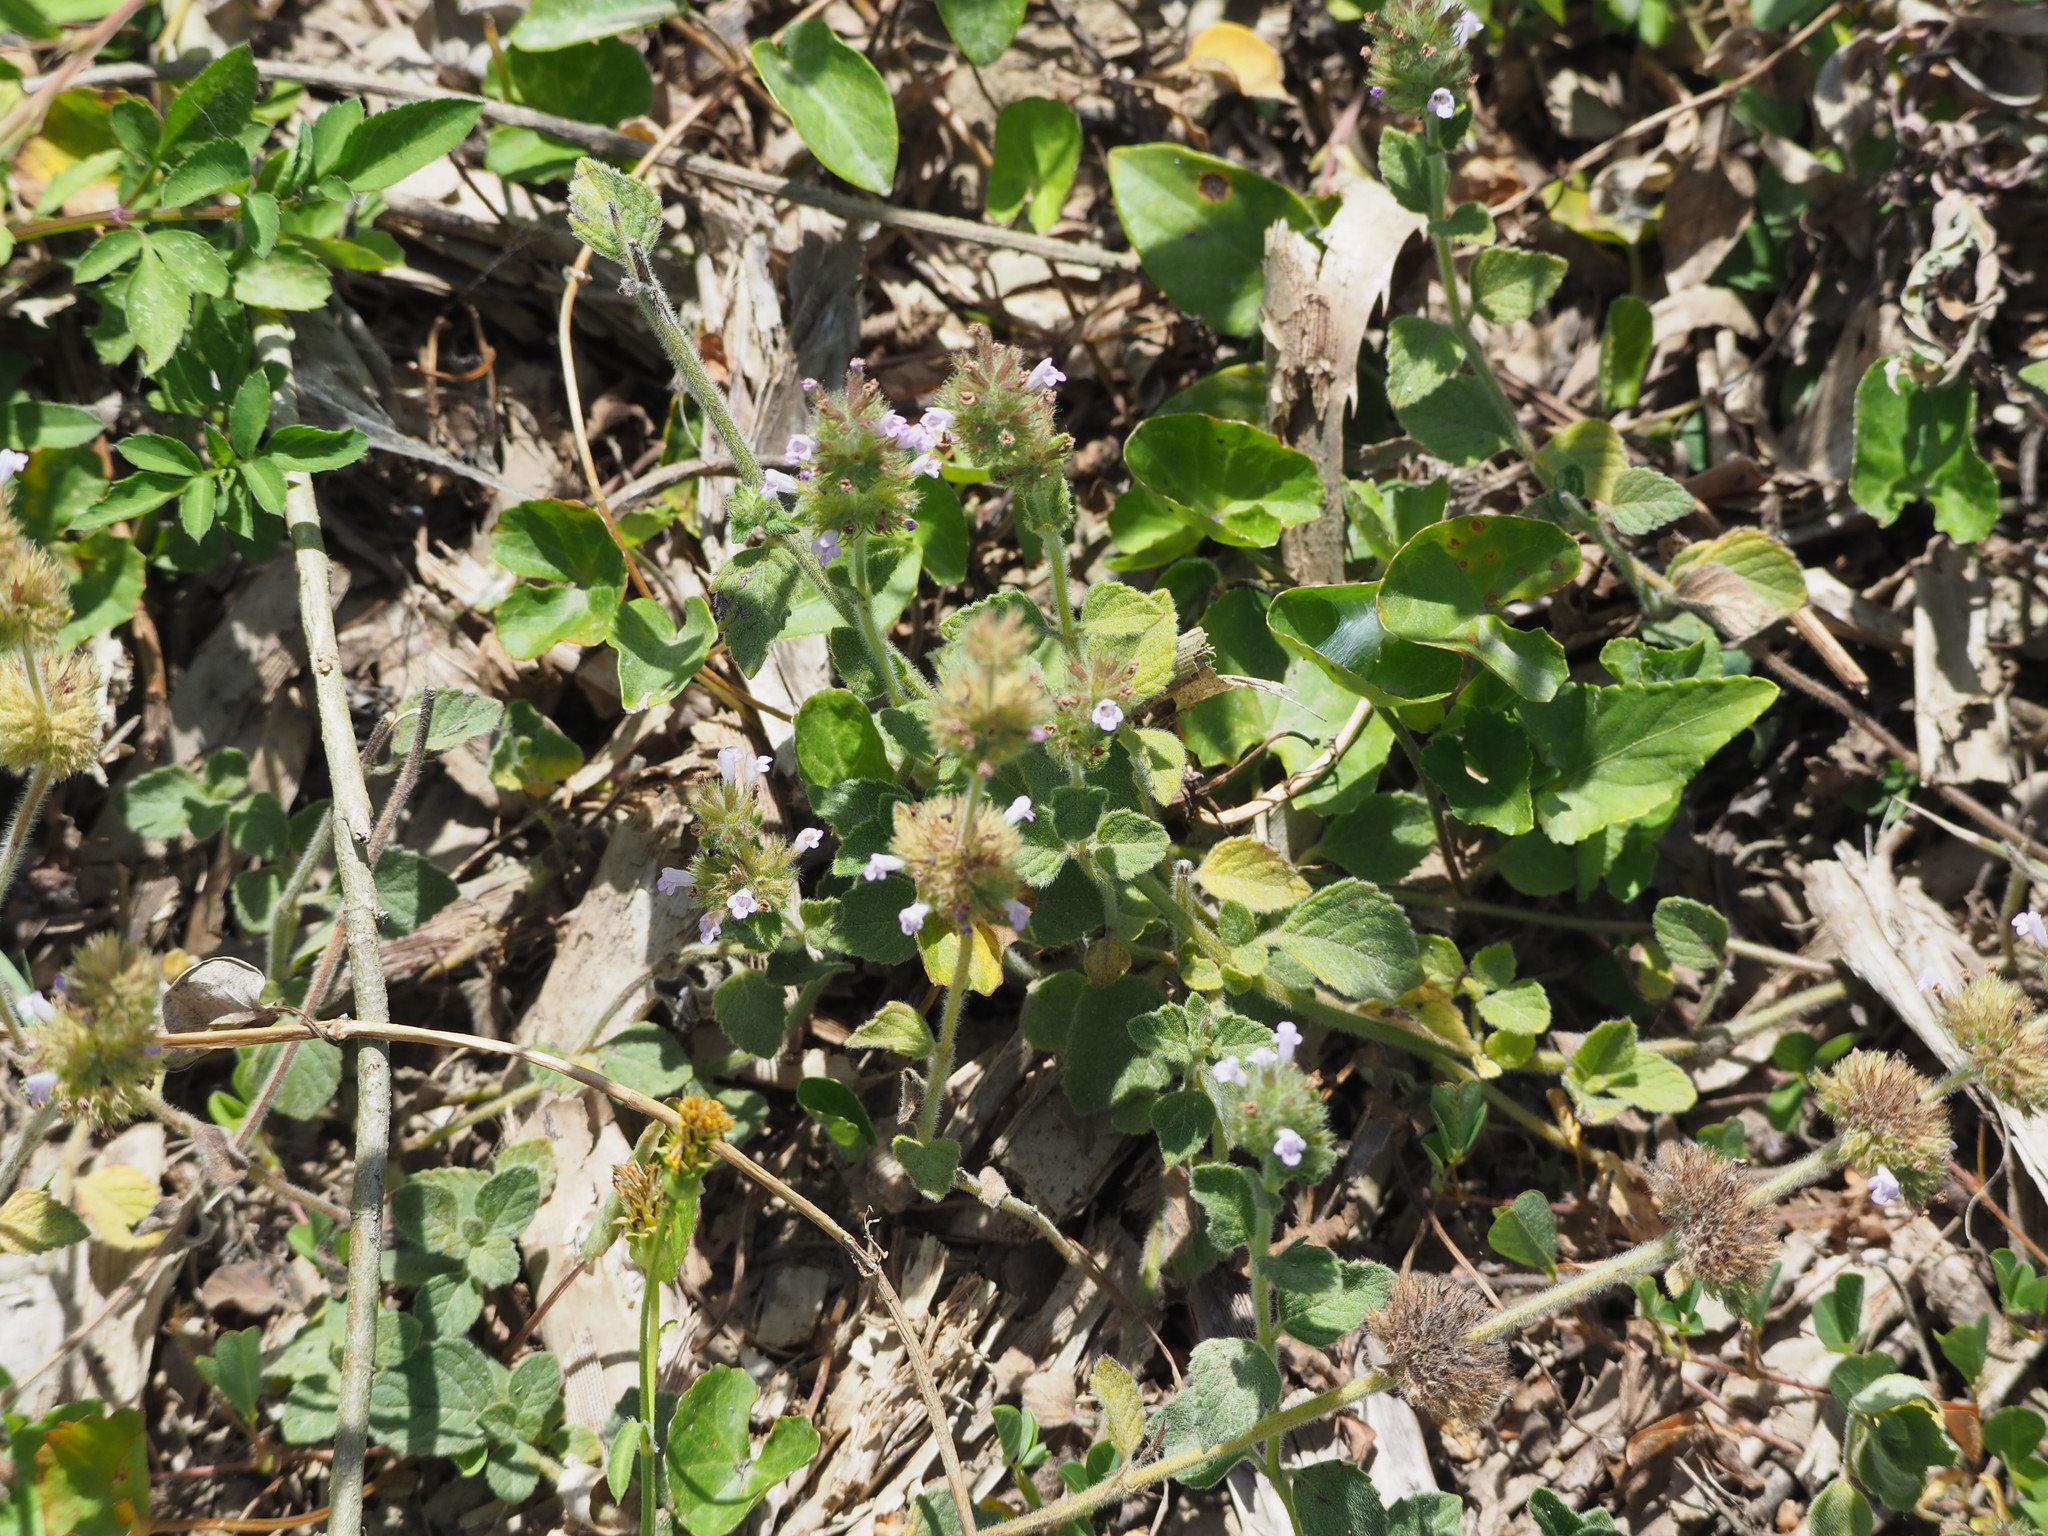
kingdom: Plantae
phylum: Tracheophyta
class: Magnoliopsida
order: Lamiales
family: Lamiaceae
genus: Clinopodium
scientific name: Clinopodium chinense
